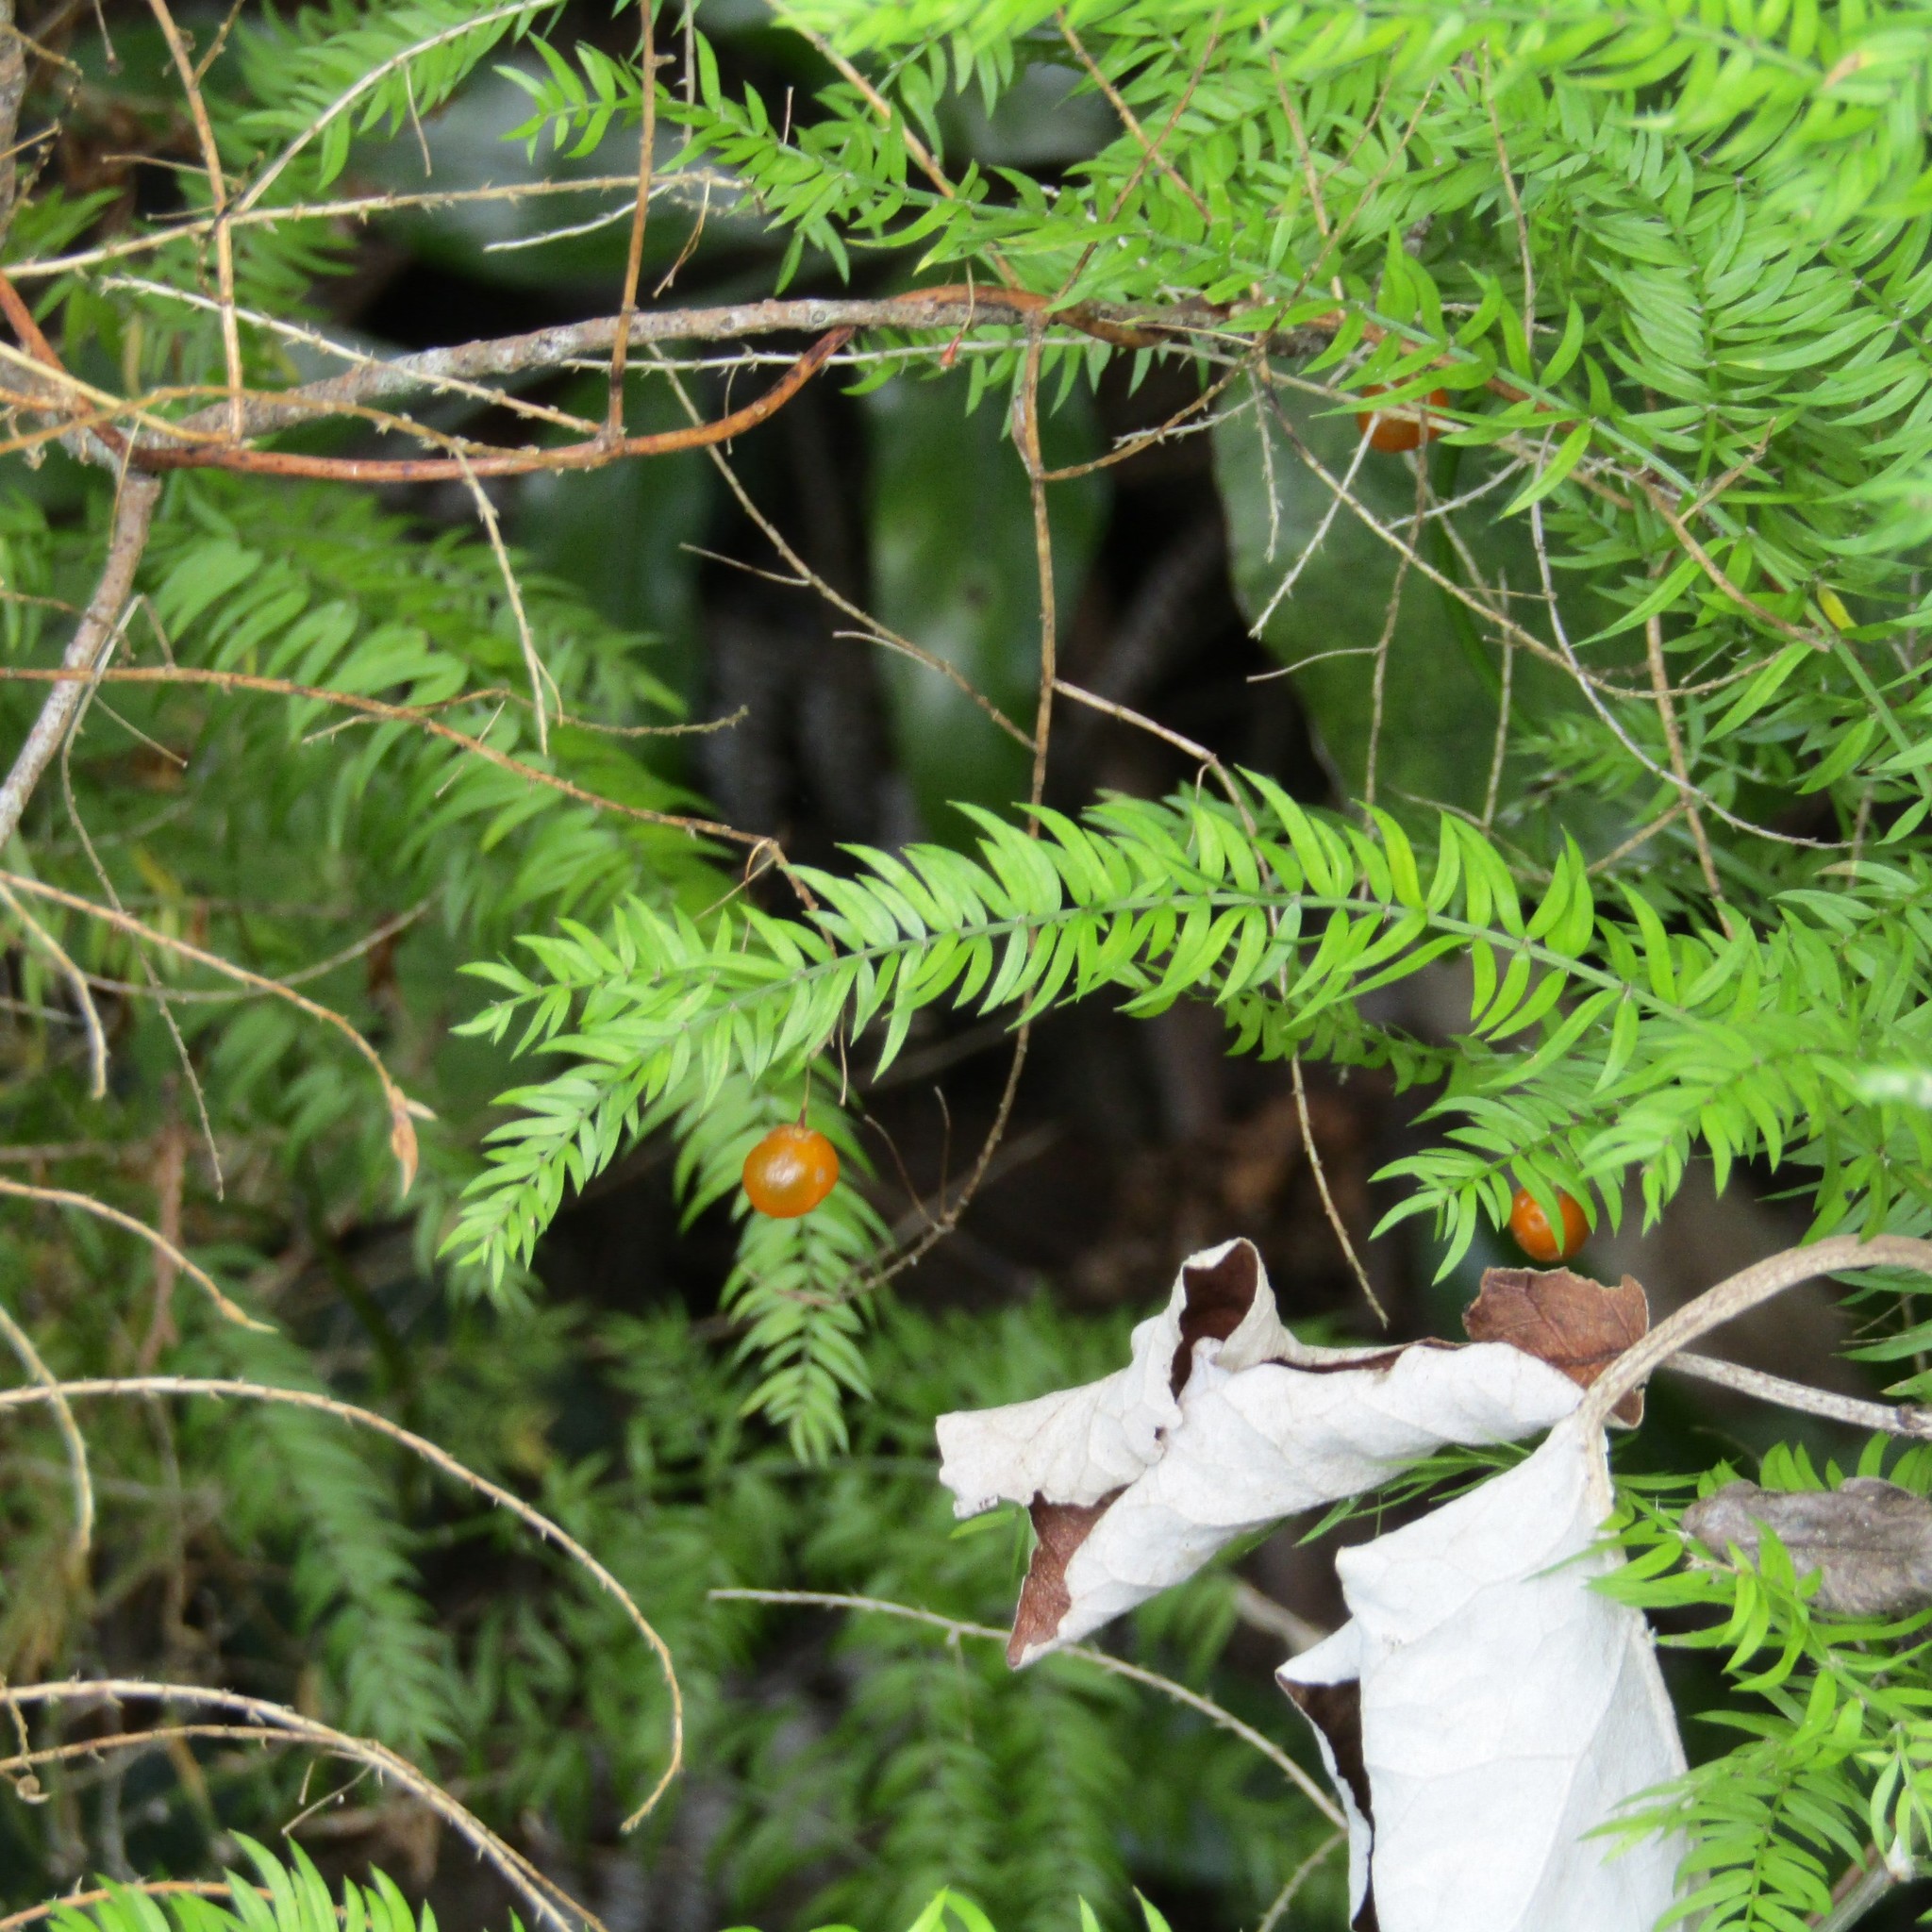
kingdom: Plantae
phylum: Tracheophyta
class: Liliopsida
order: Asparagales
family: Asparagaceae
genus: Asparagus
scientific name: Asparagus scandens
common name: Asparagus-fern
